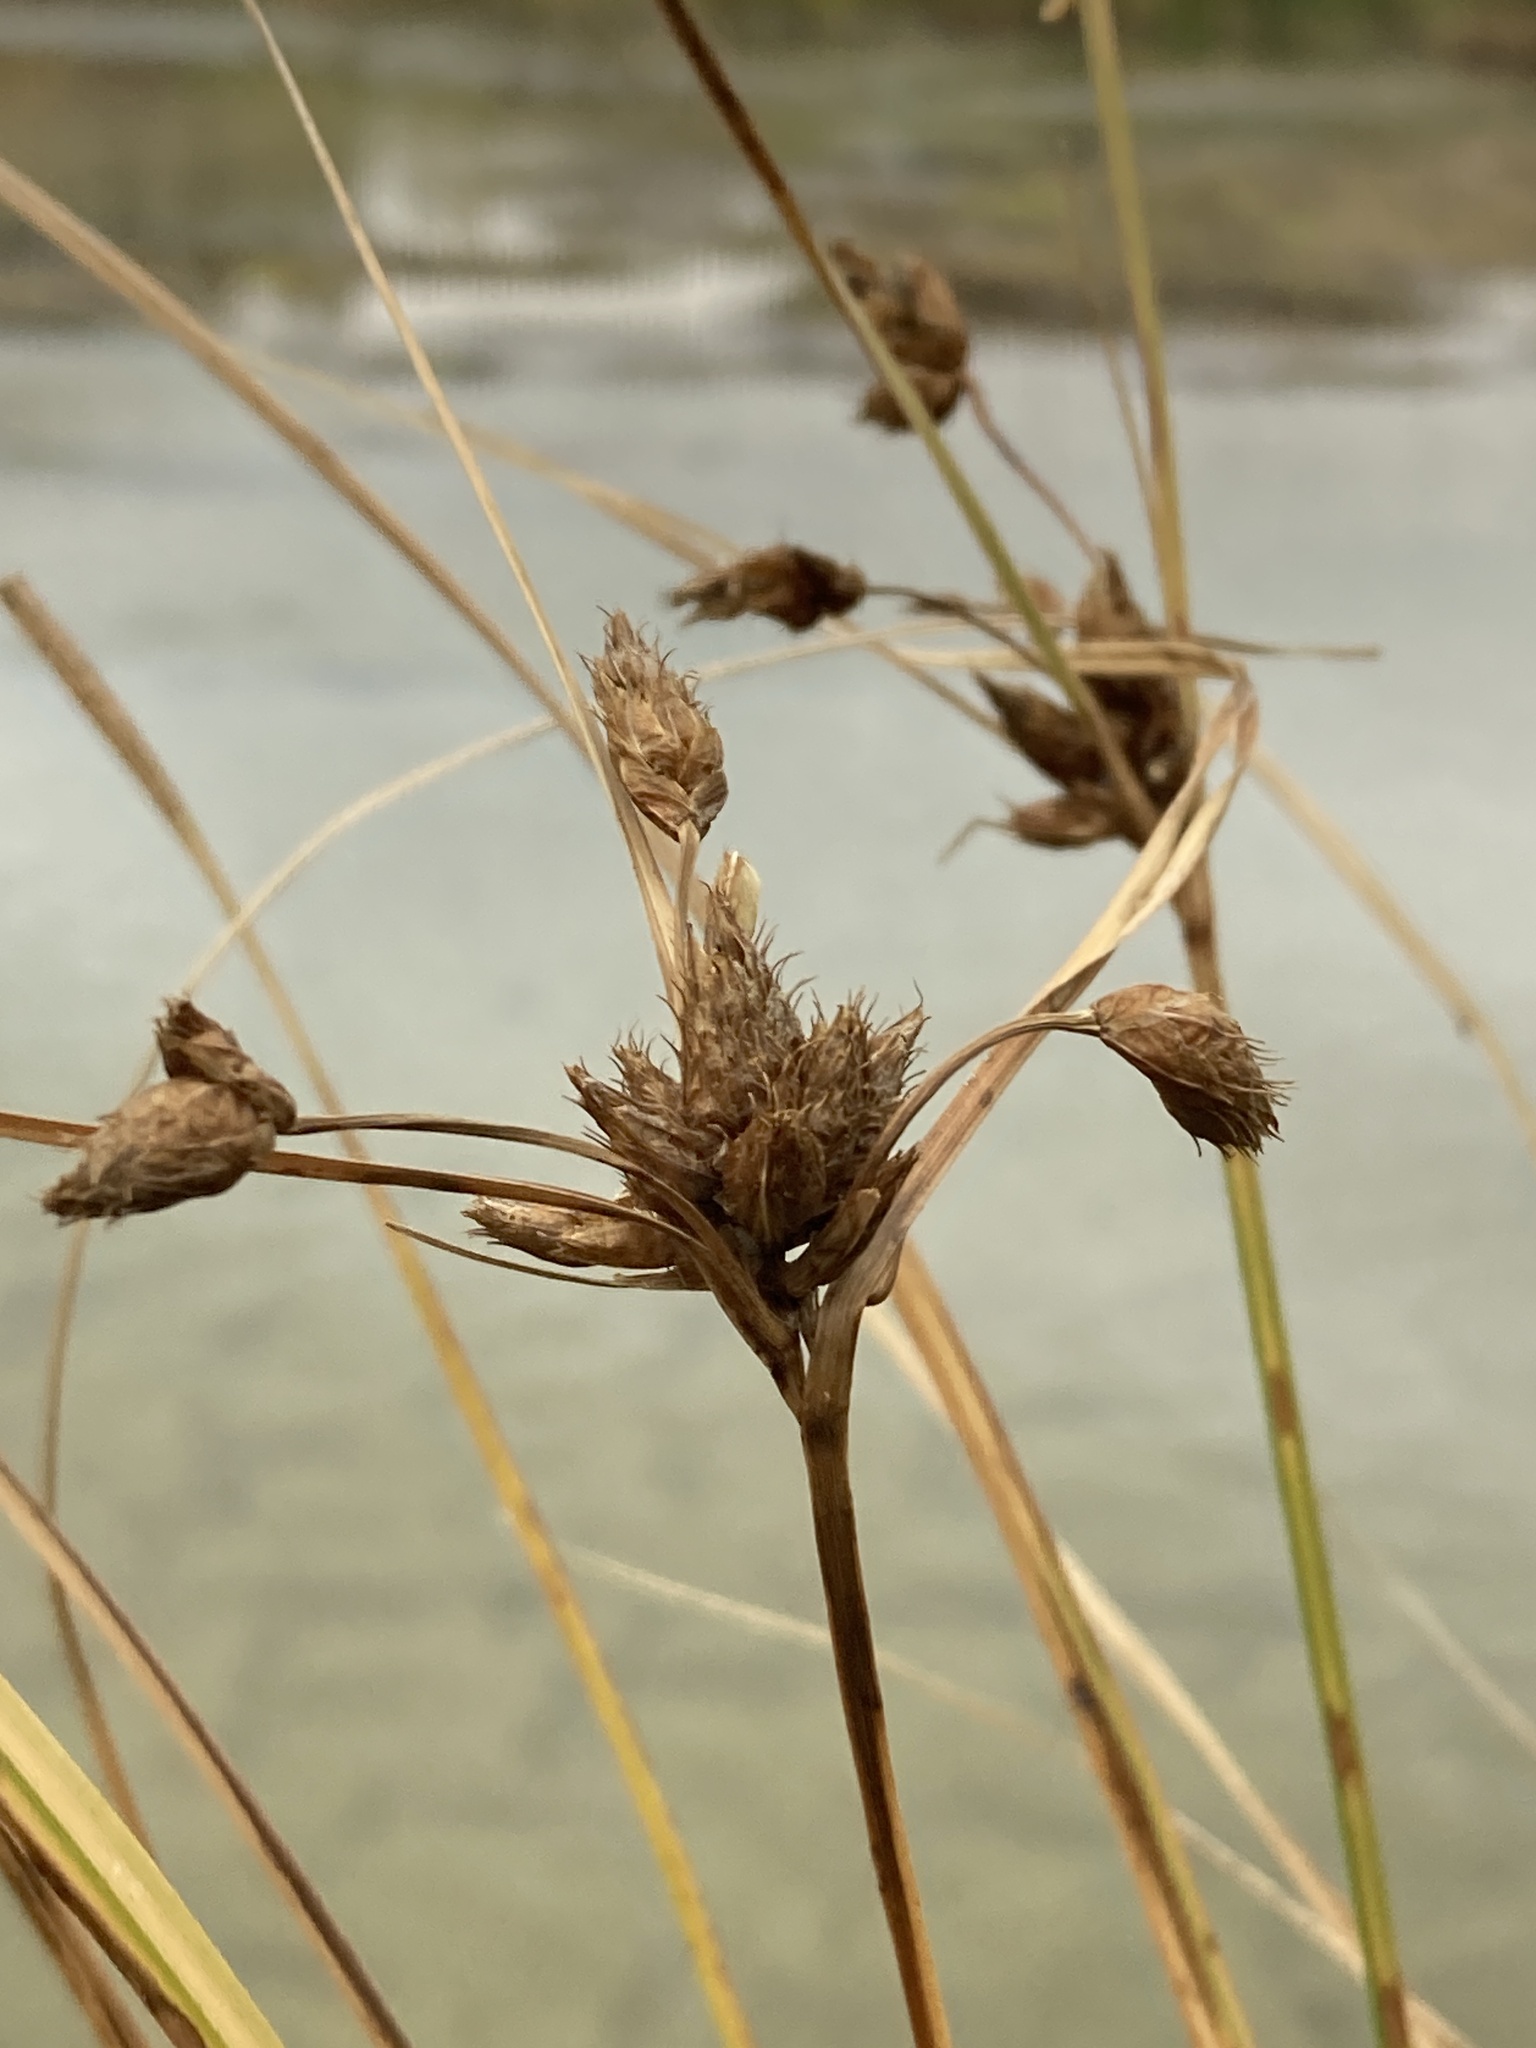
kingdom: Plantae
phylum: Tracheophyta
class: Liliopsida
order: Poales
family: Cyperaceae
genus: Bolboschoenus
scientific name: Bolboschoenus maritimus
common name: Sea club-rush
